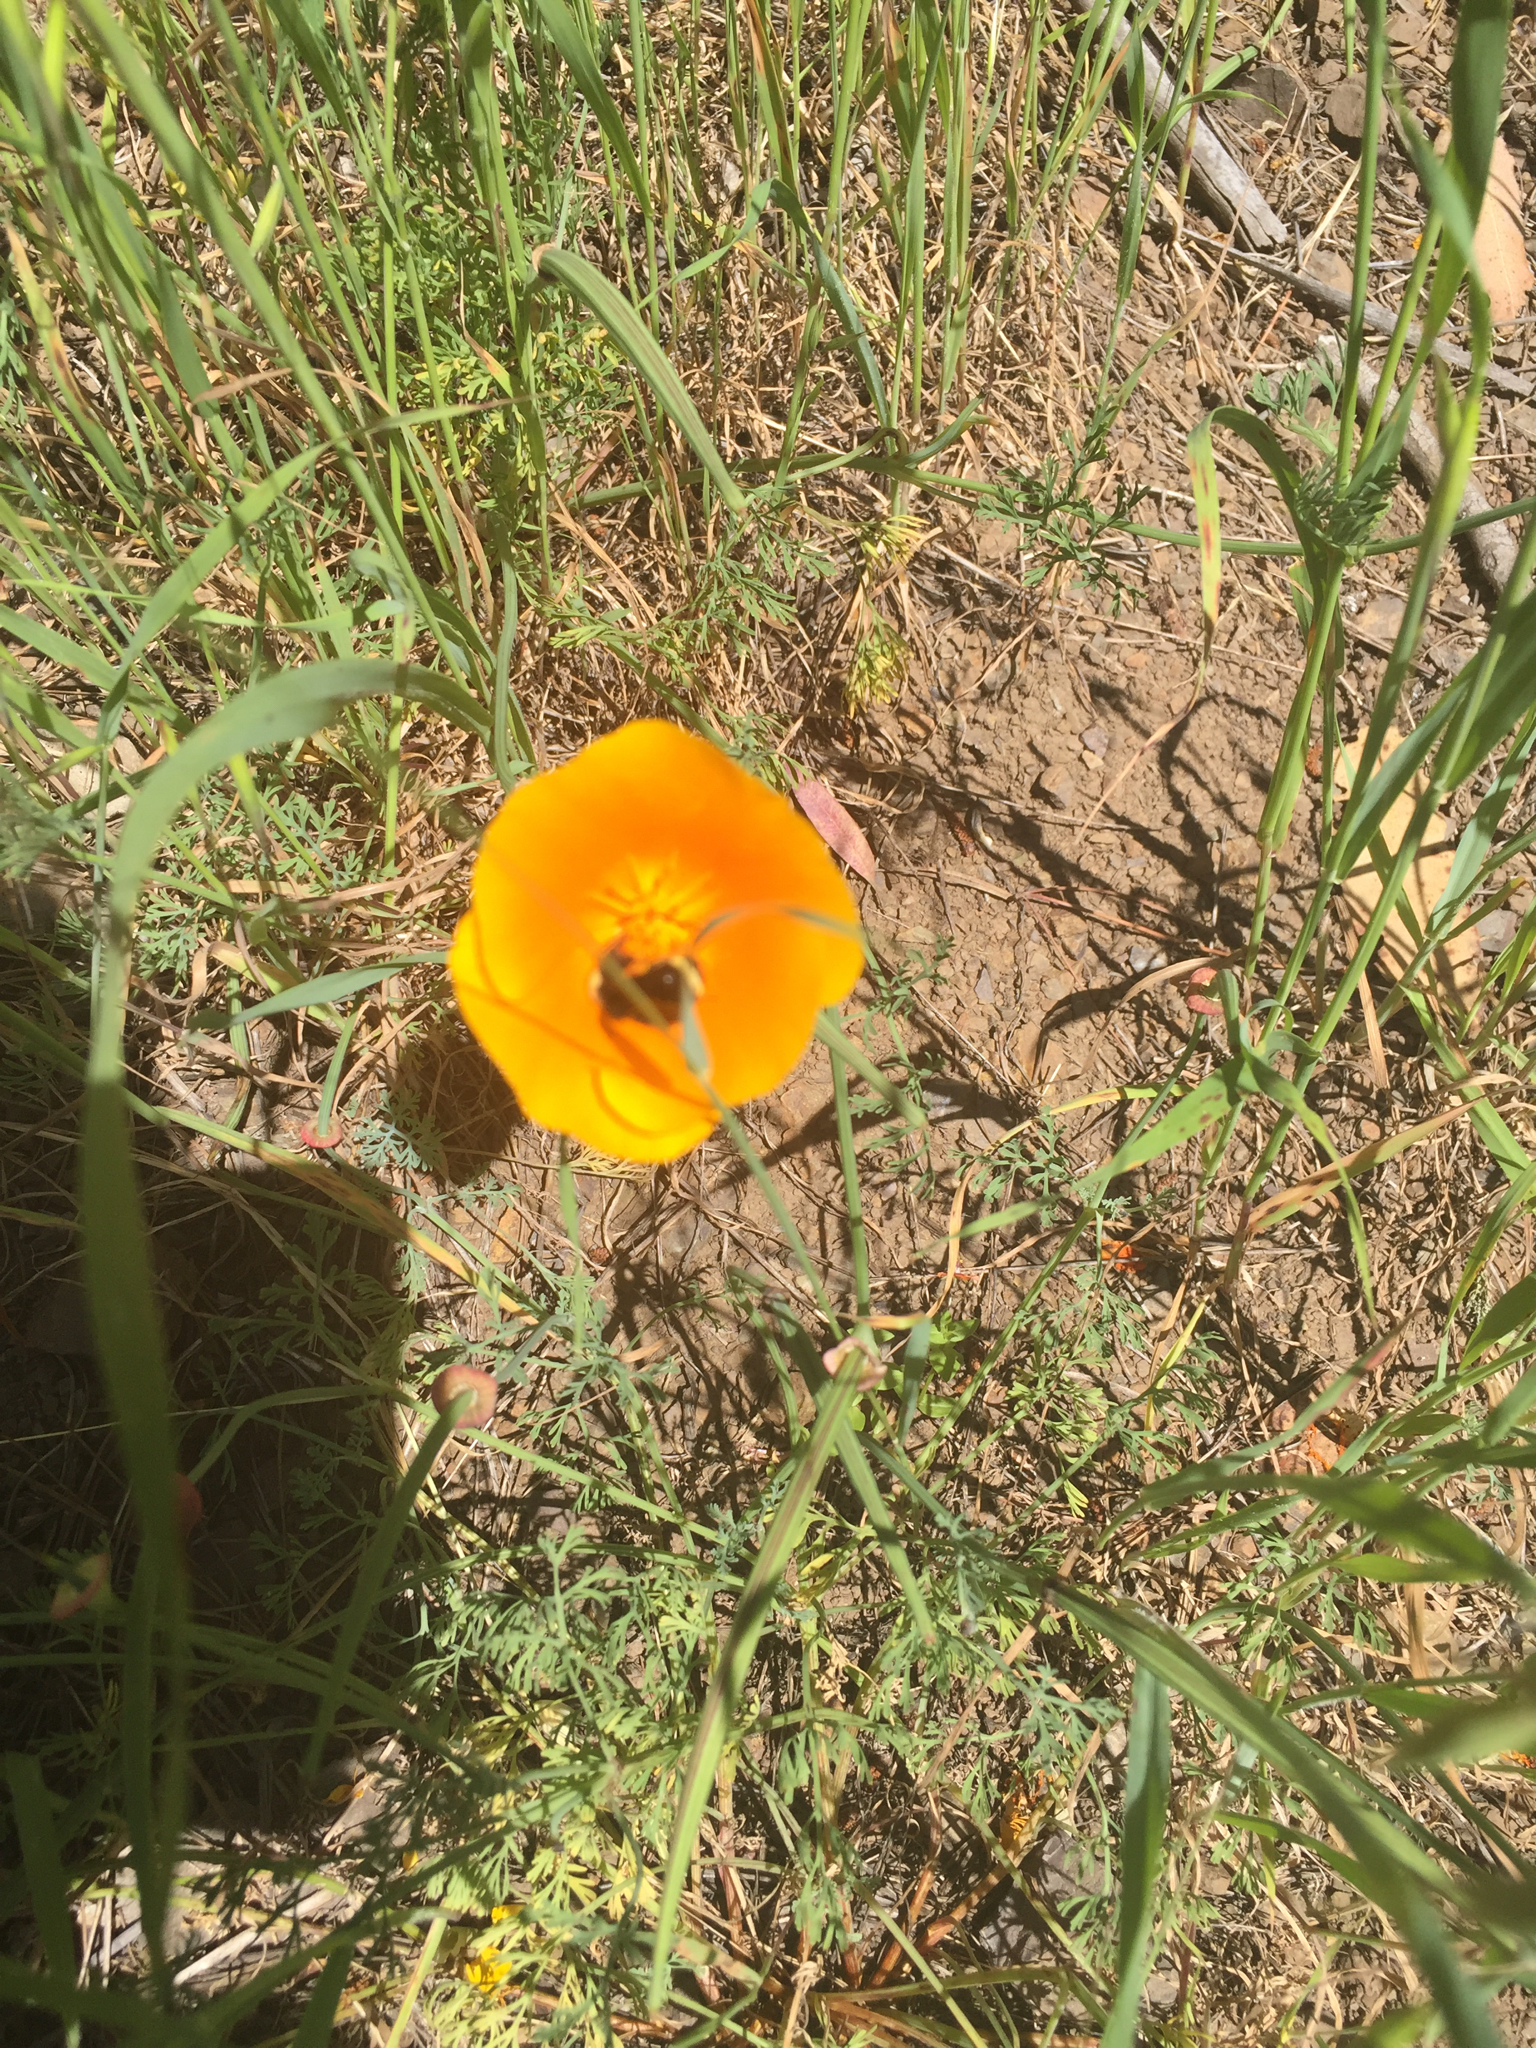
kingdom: Animalia
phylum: Arthropoda
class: Insecta
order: Hymenoptera
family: Apidae
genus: Bombus
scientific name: Bombus vosnesenskii
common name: Vosnesensky bumble bee
